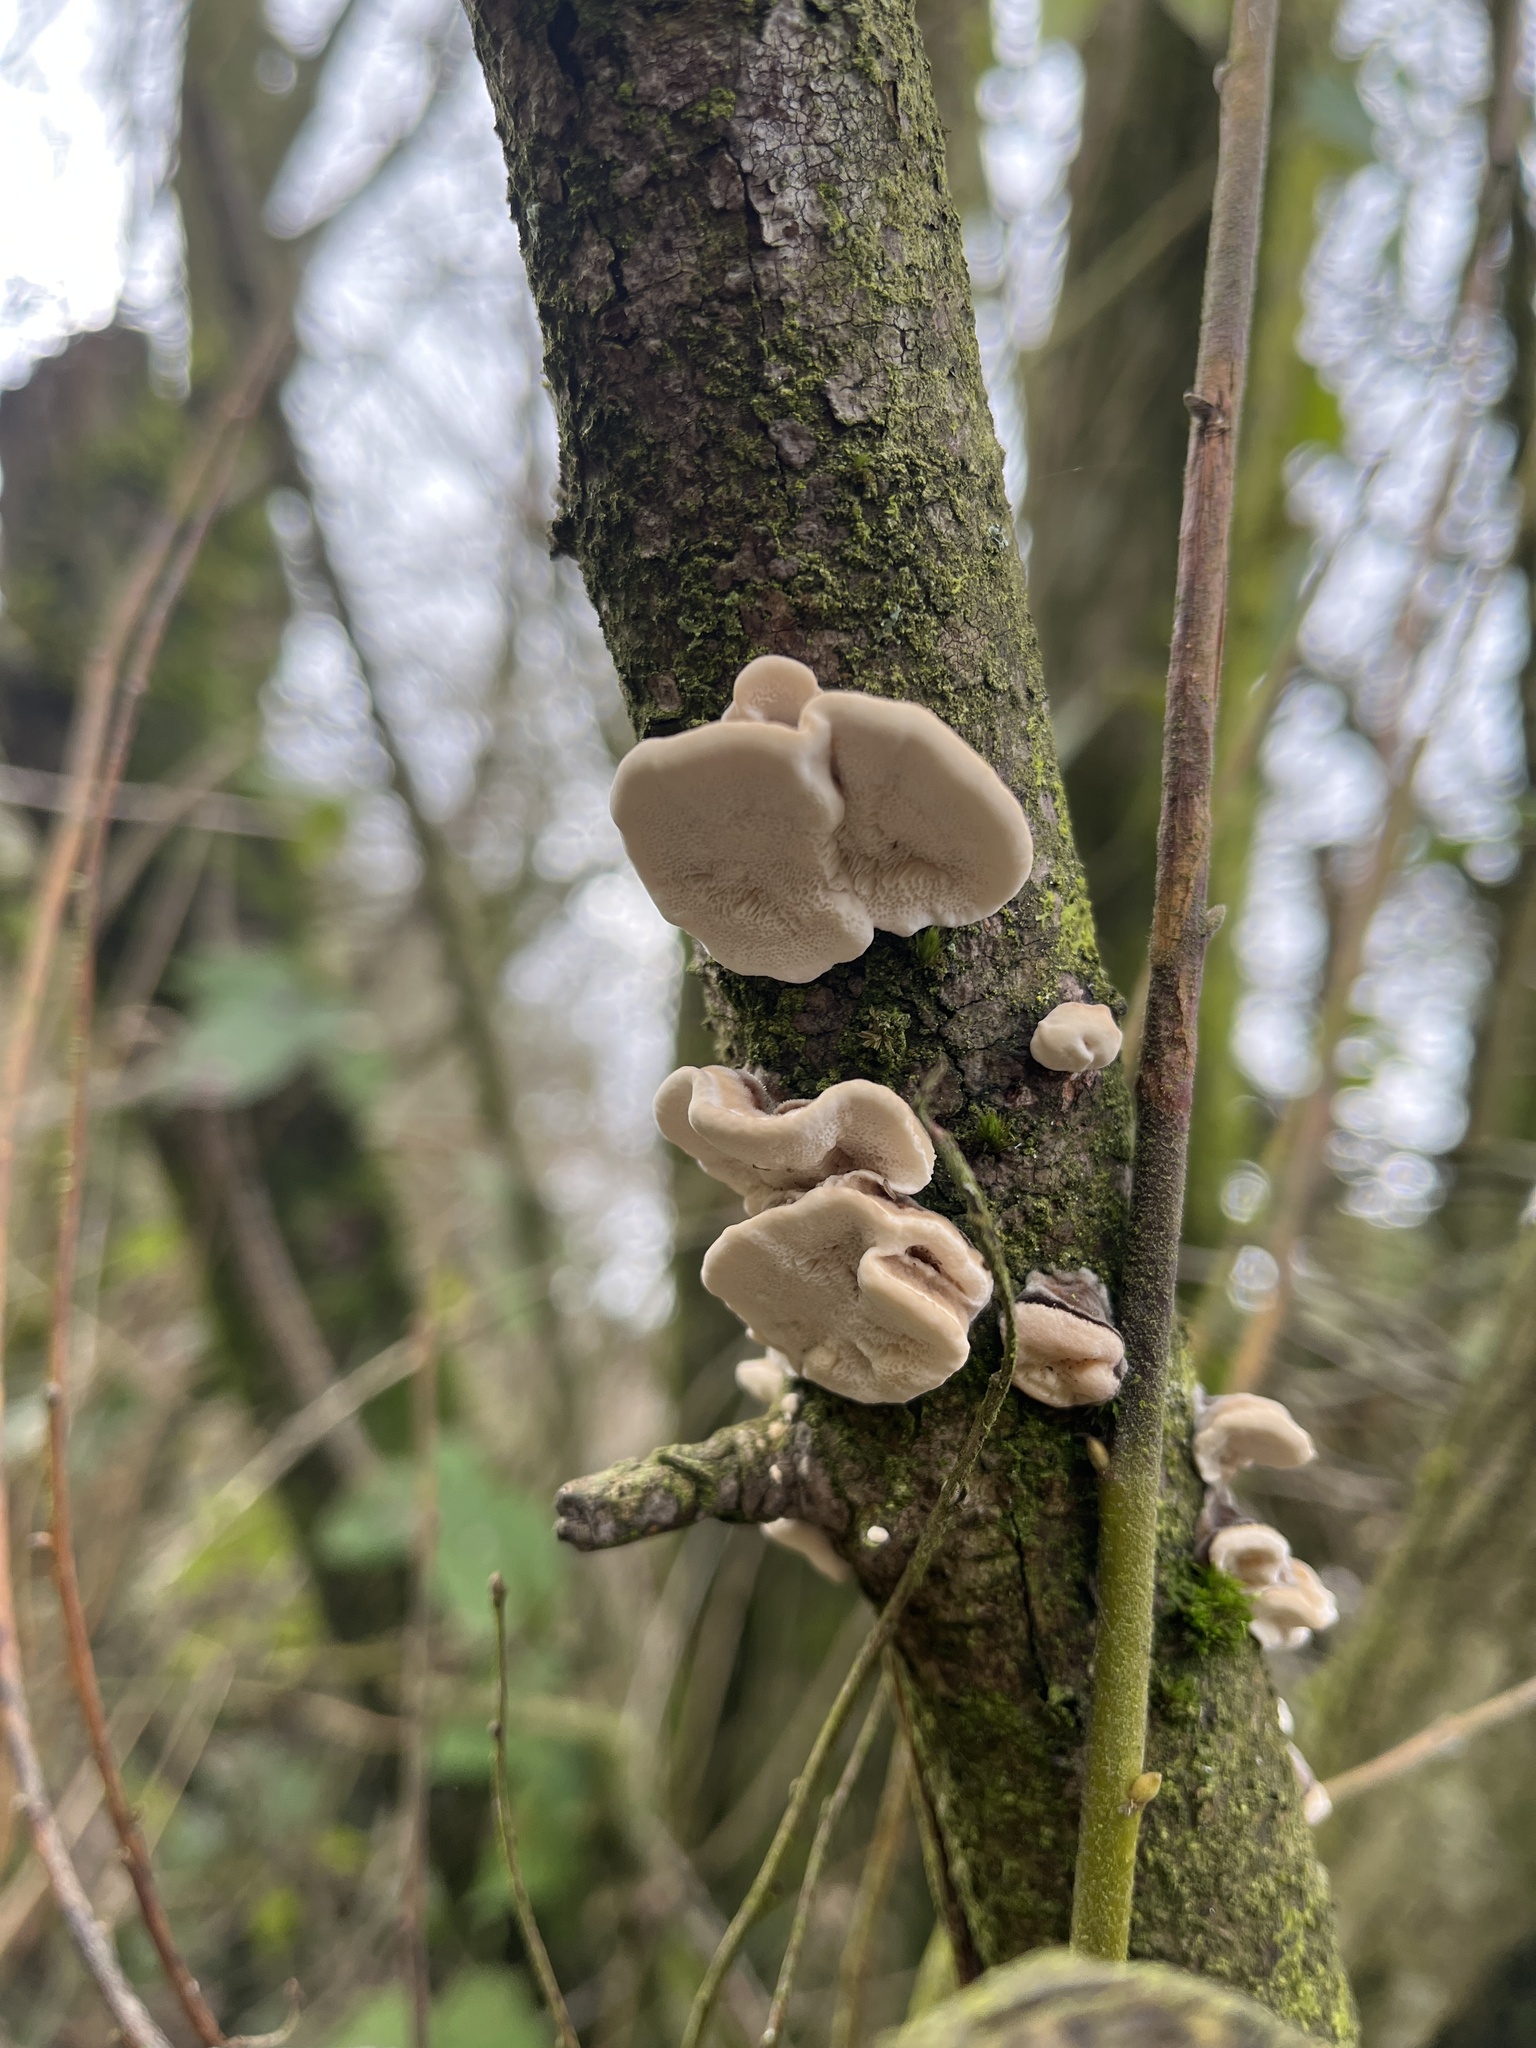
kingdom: Fungi
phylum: Basidiomycota
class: Agaricomycetes
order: Polyporales
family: Polyporaceae
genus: Trametes
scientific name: Trametes versicolor
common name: Turkeytail
